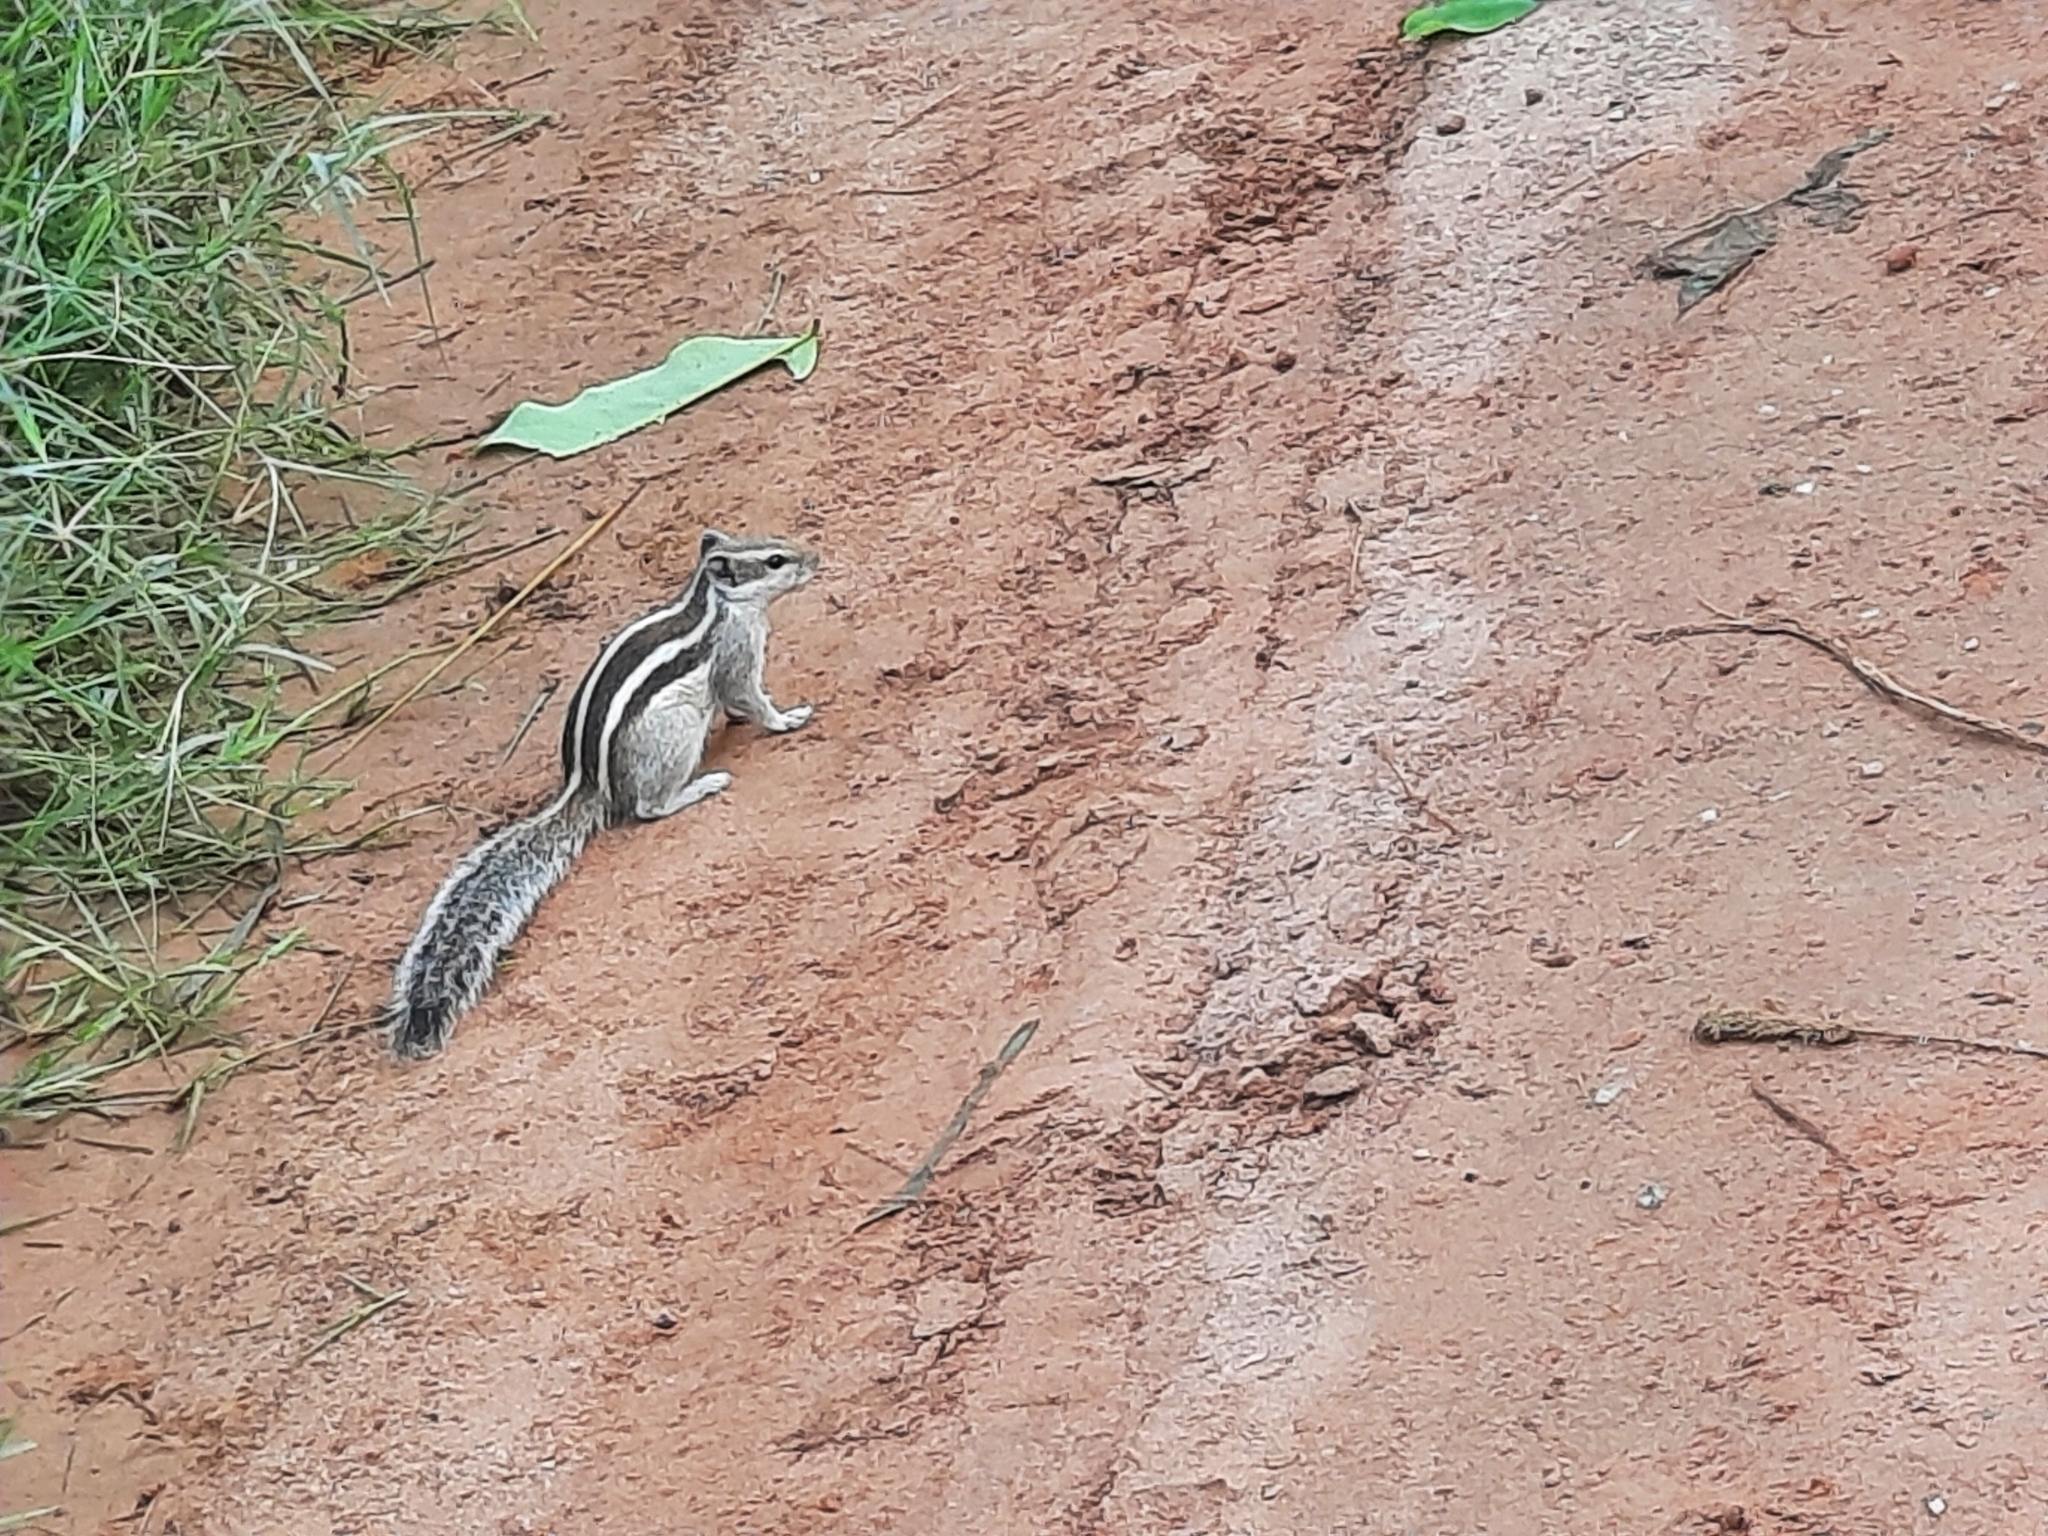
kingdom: Animalia
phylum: Chordata
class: Mammalia
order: Rodentia
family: Sciuridae
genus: Funambulus
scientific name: Funambulus pennantii
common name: Northern palm squirrel
